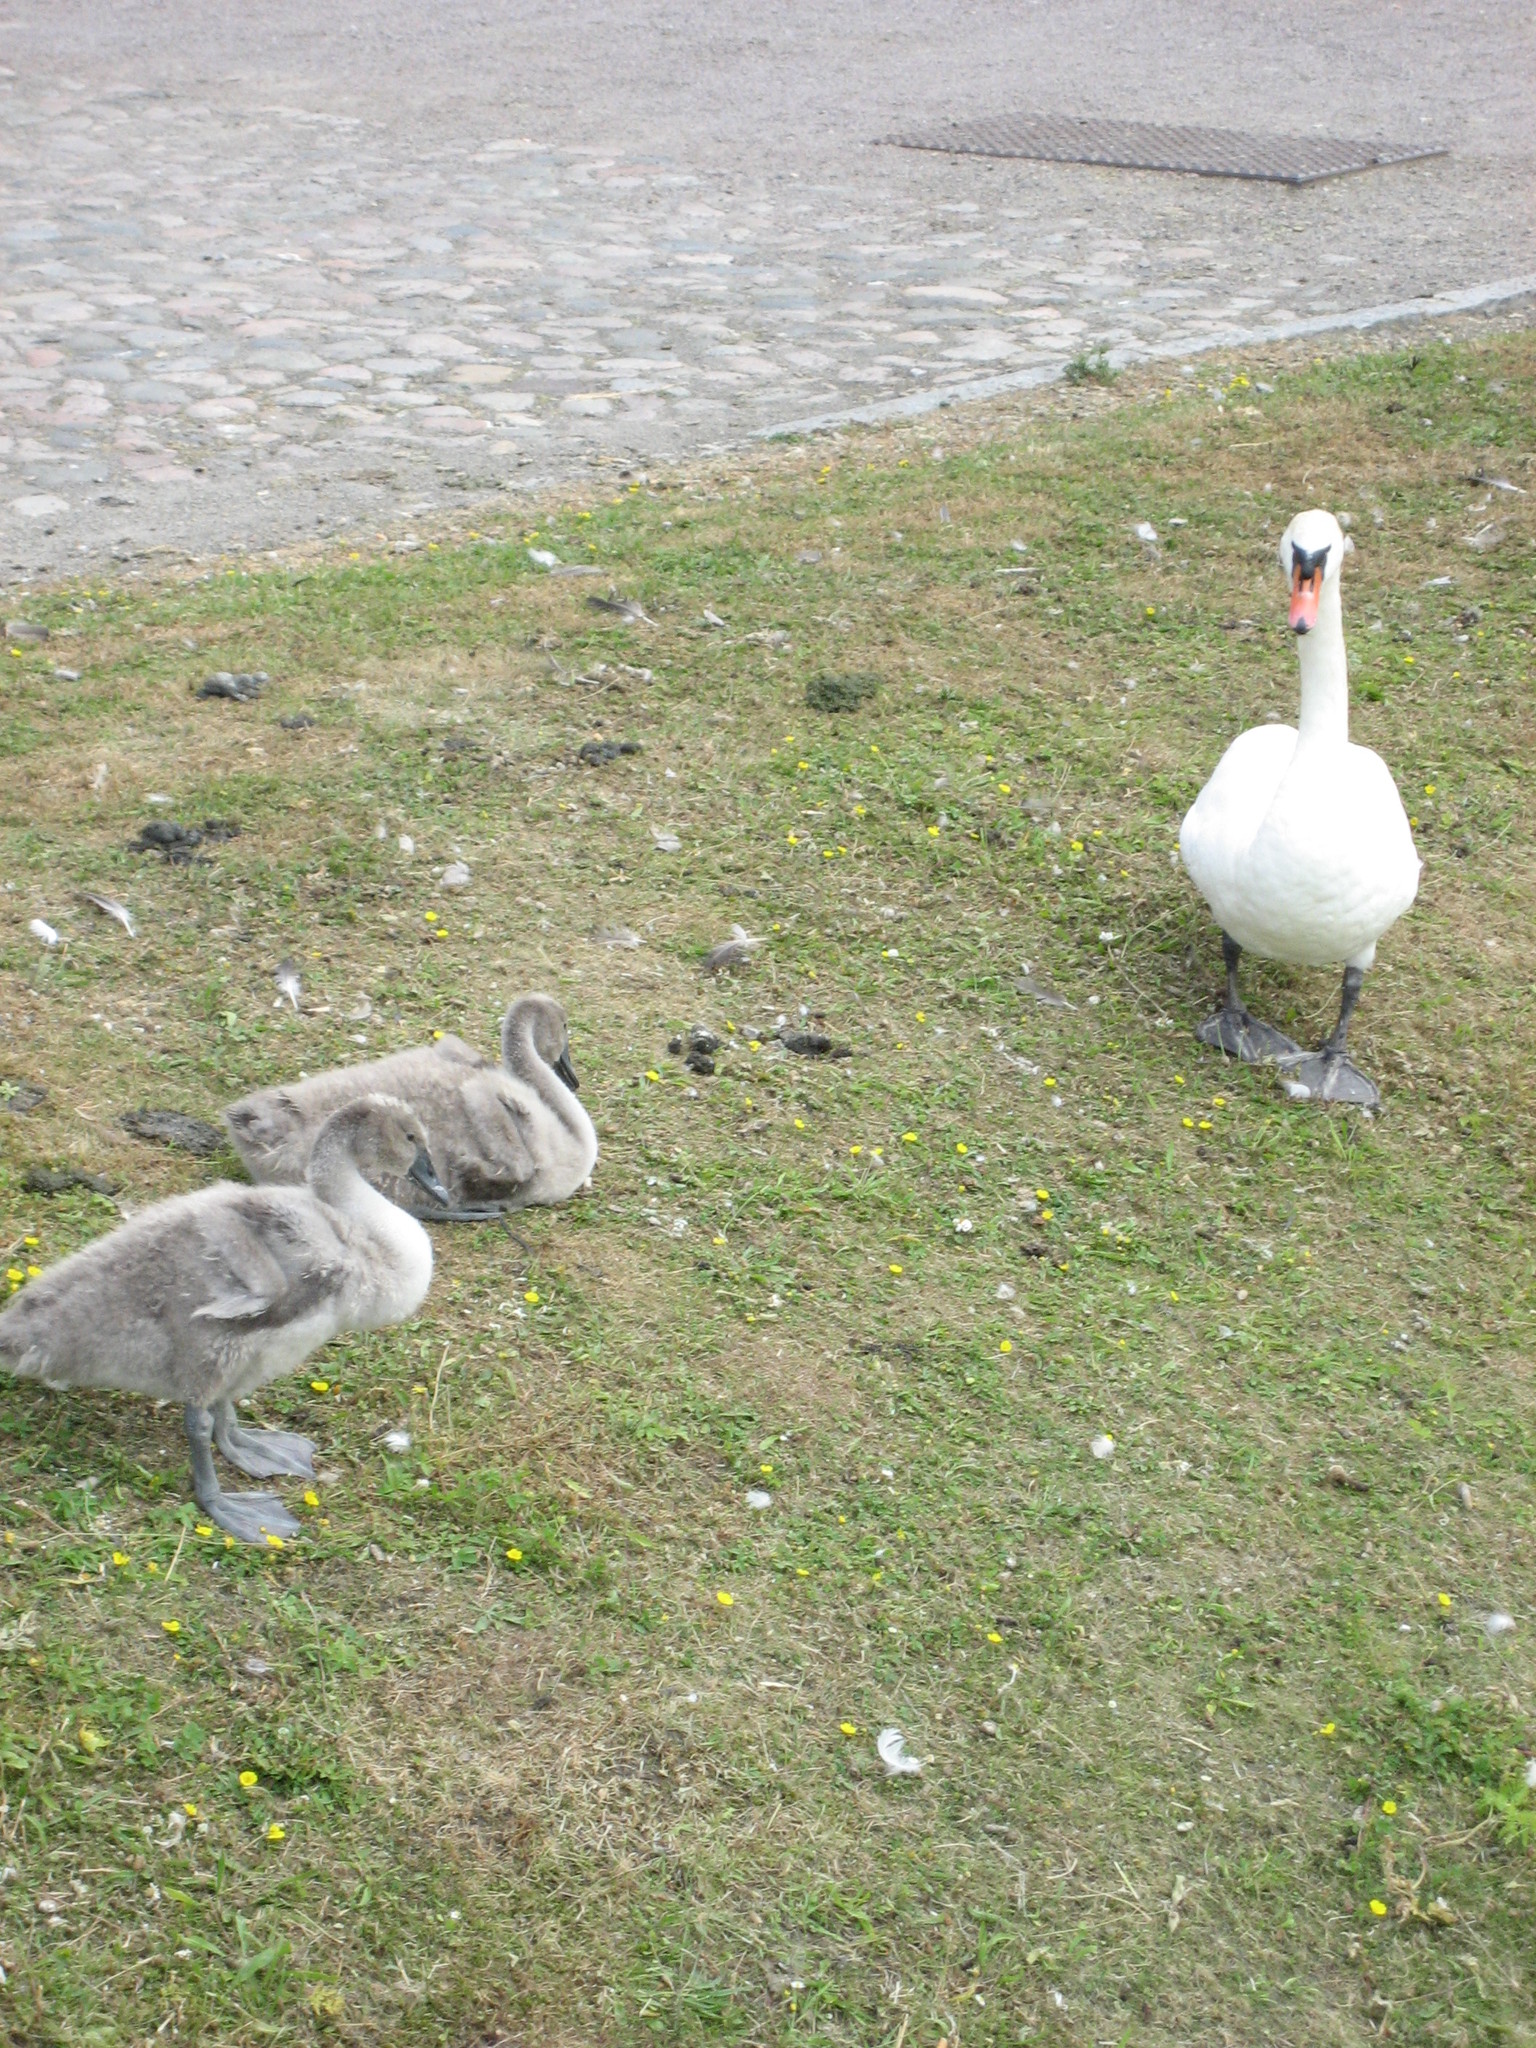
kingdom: Animalia
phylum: Chordata
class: Aves
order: Anseriformes
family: Anatidae
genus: Cygnus
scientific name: Cygnus olor
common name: Mute swan
